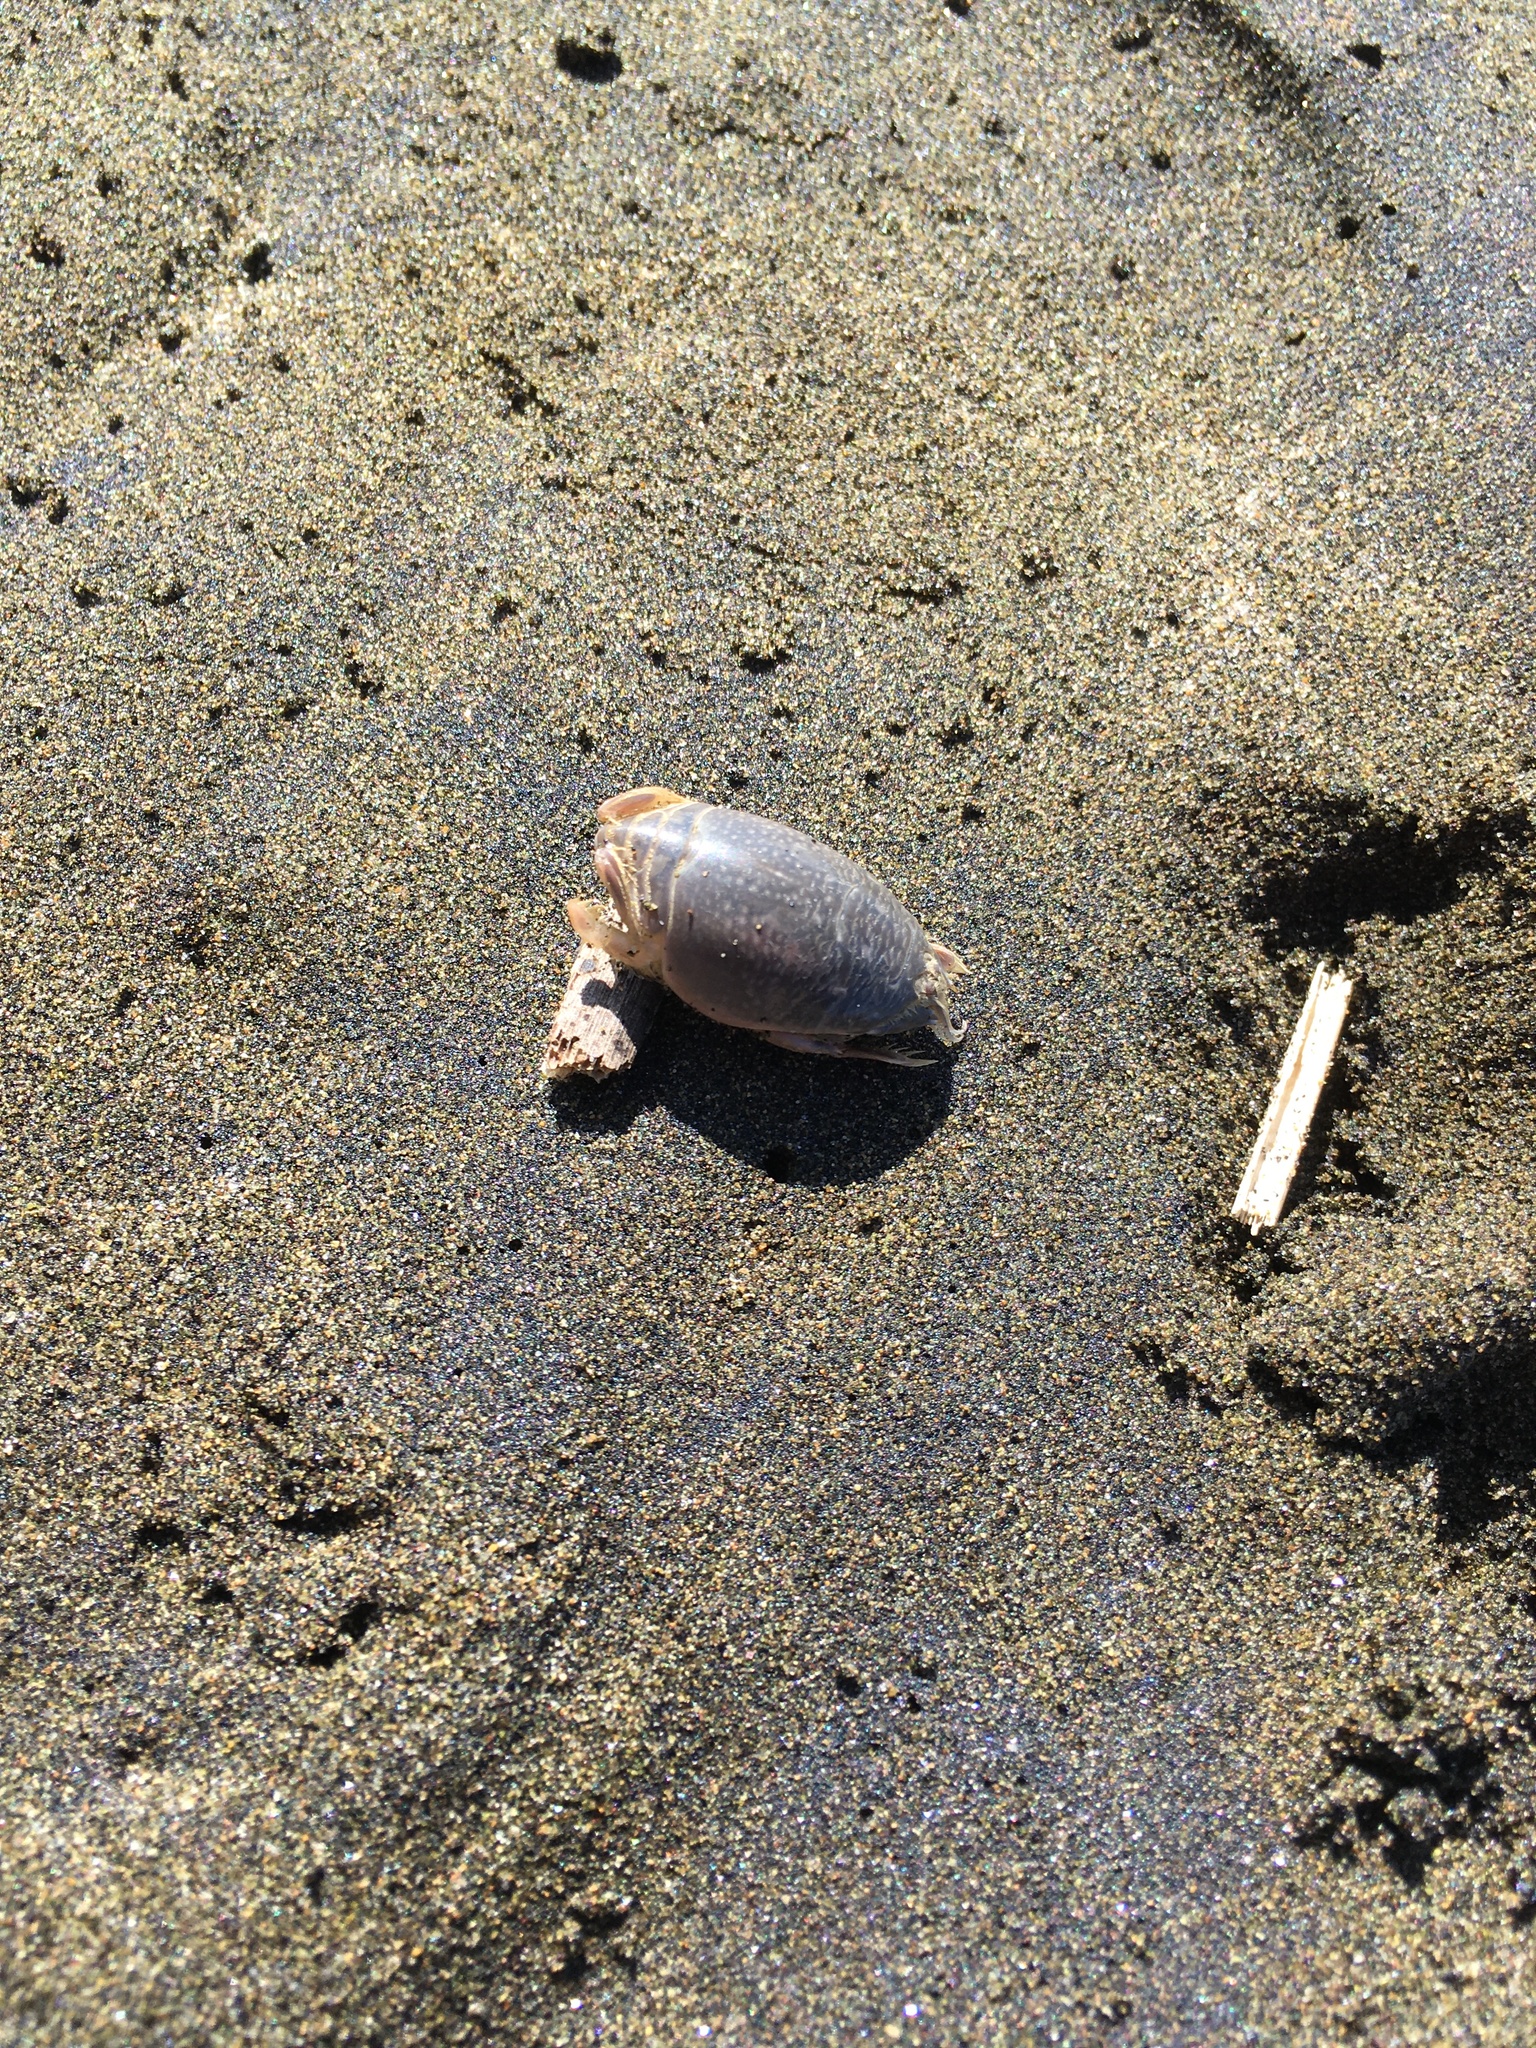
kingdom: Animalia
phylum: Arthropoda
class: Malacostraca
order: Decapoda
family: Hippidae
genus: Emerita
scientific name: Emerita analoga
